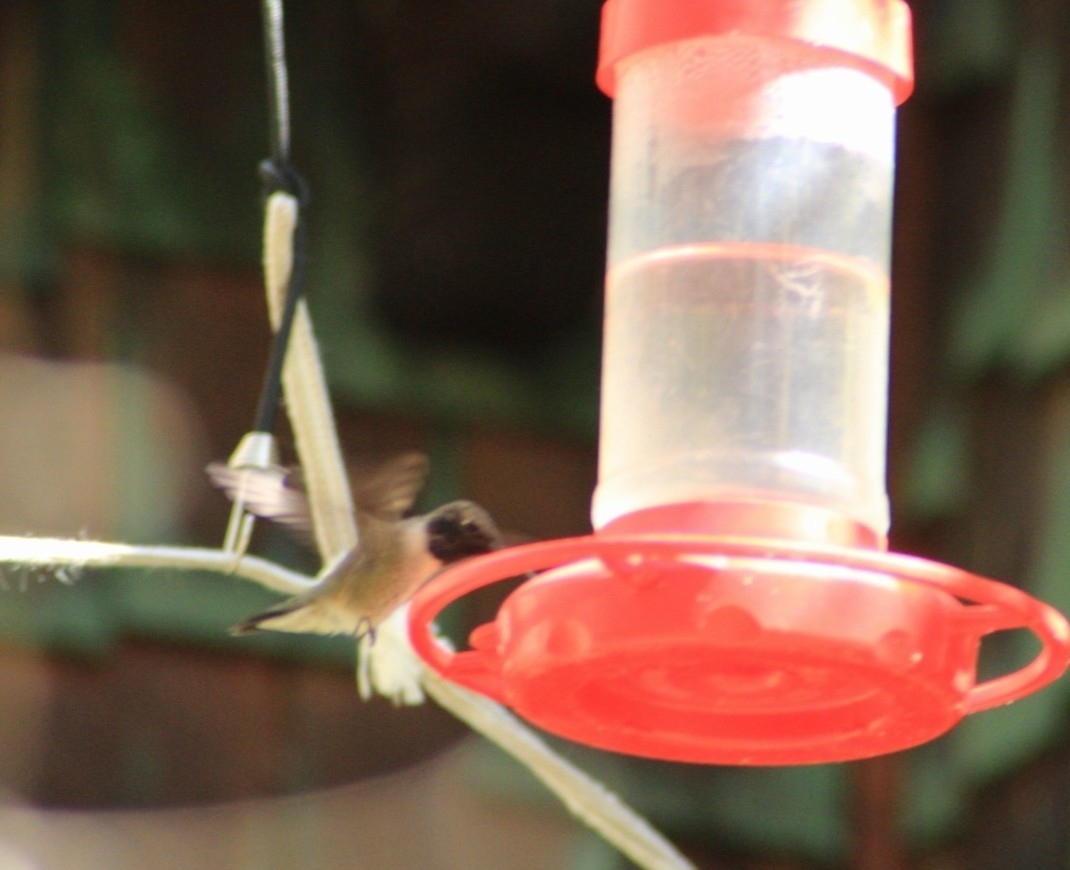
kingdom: Animalia
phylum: Chordata
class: Aves
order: Apodiformes
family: Trochilidae
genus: Archilochus
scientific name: Archilochus alexandri
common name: Black-chinned hummingbird
